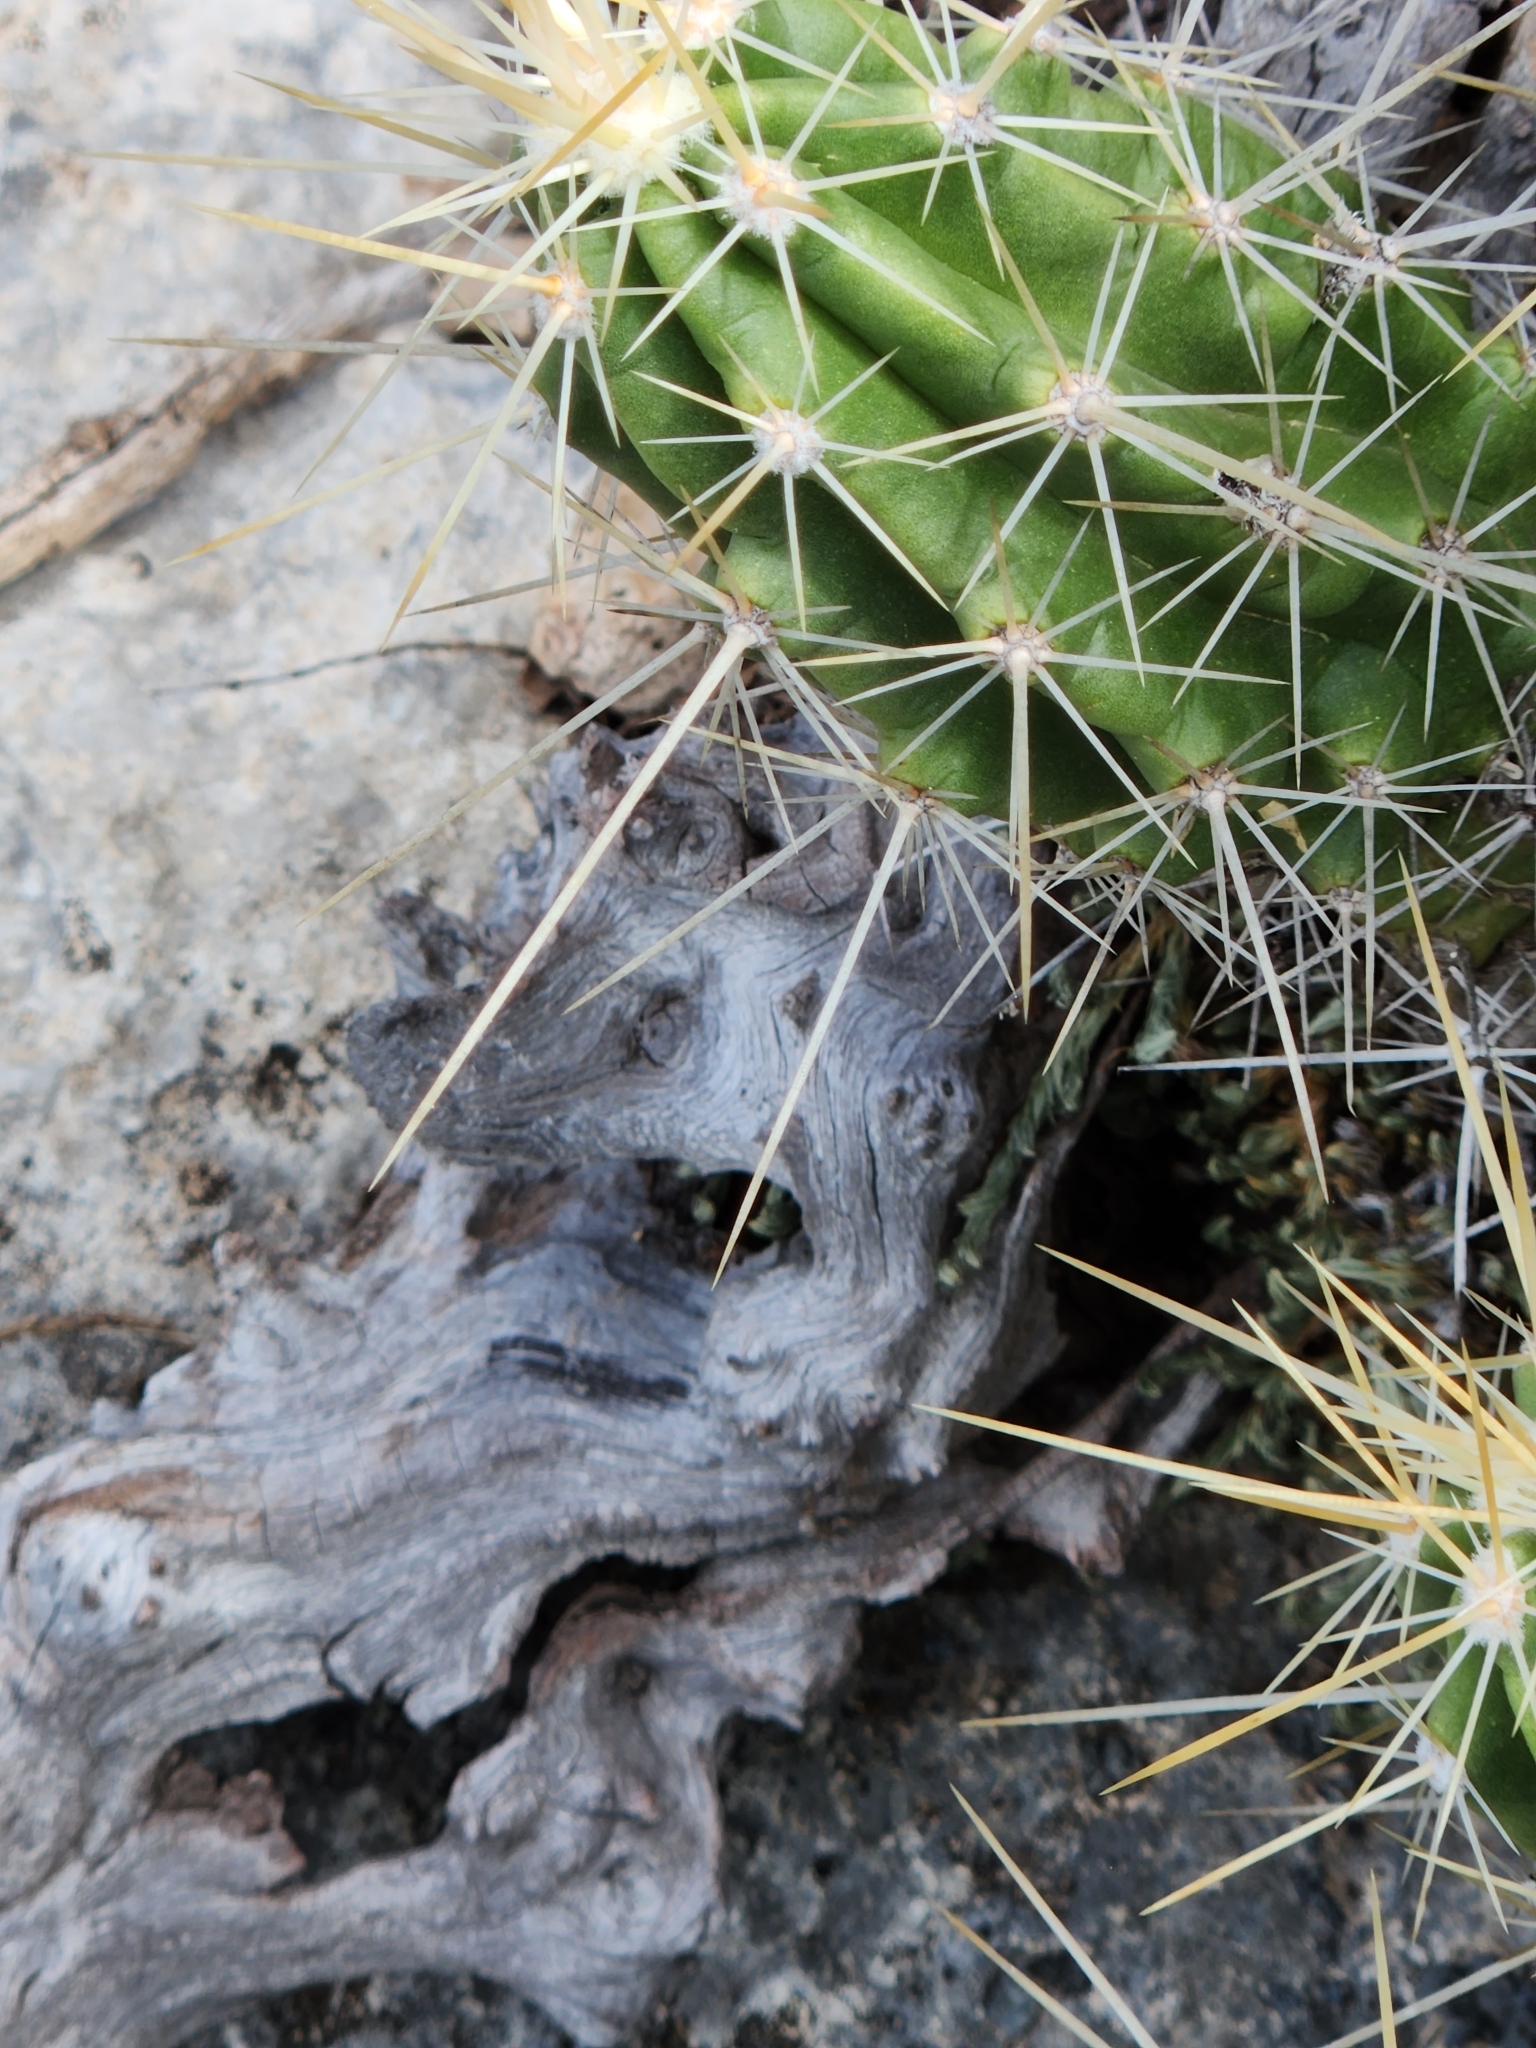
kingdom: Plantae
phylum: Tracheophyta
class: Magnoliopsida
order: Caryophyllales
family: Cactaceae
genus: Echinocereus
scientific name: Echinocereus enneacanthus
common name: Pitaya
